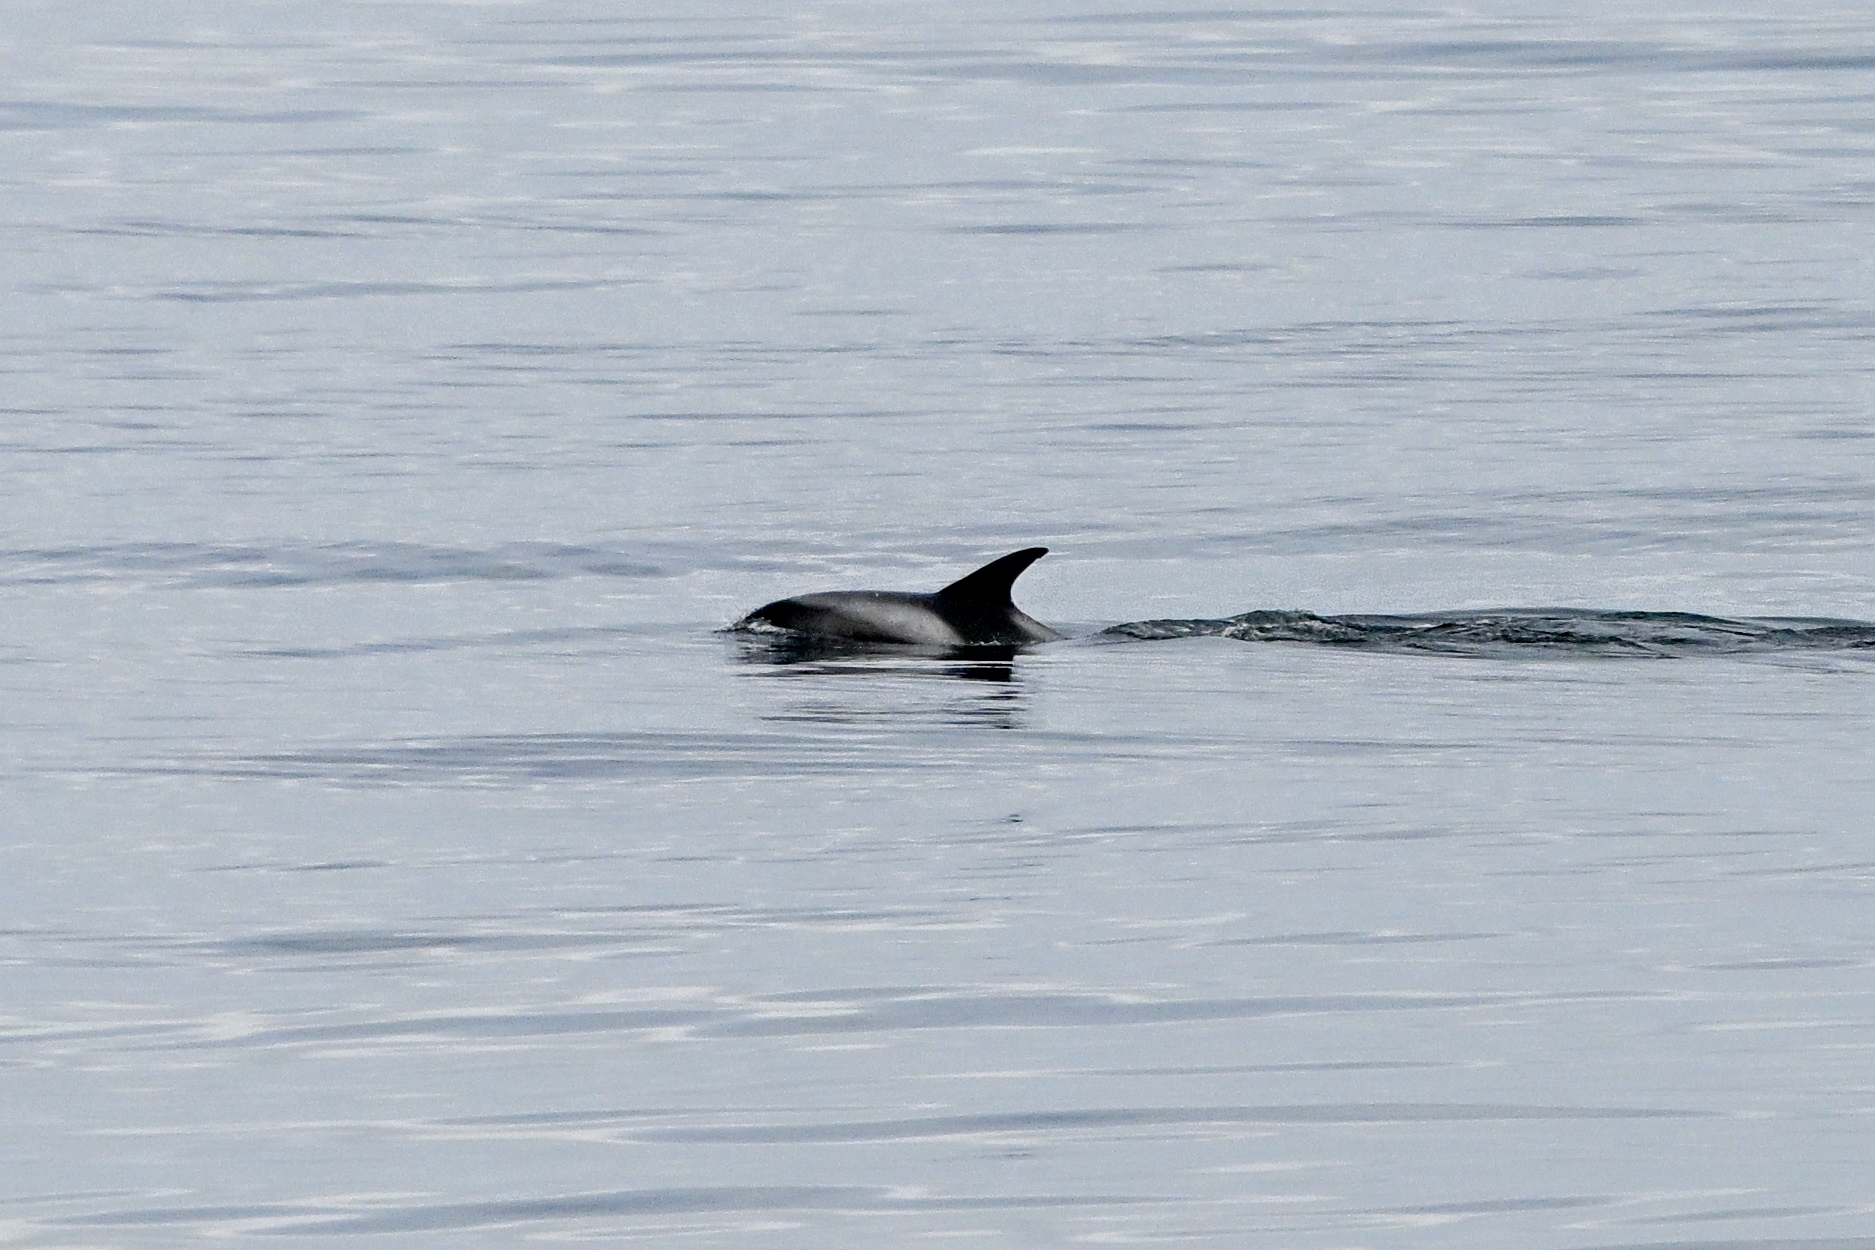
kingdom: Animalia
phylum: Chordata
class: Mammalia
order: Cetacea
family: Delphinidae
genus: Lagenorhynchus
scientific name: Lagenorhynchus albirostris
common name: White-beaked dolphin
